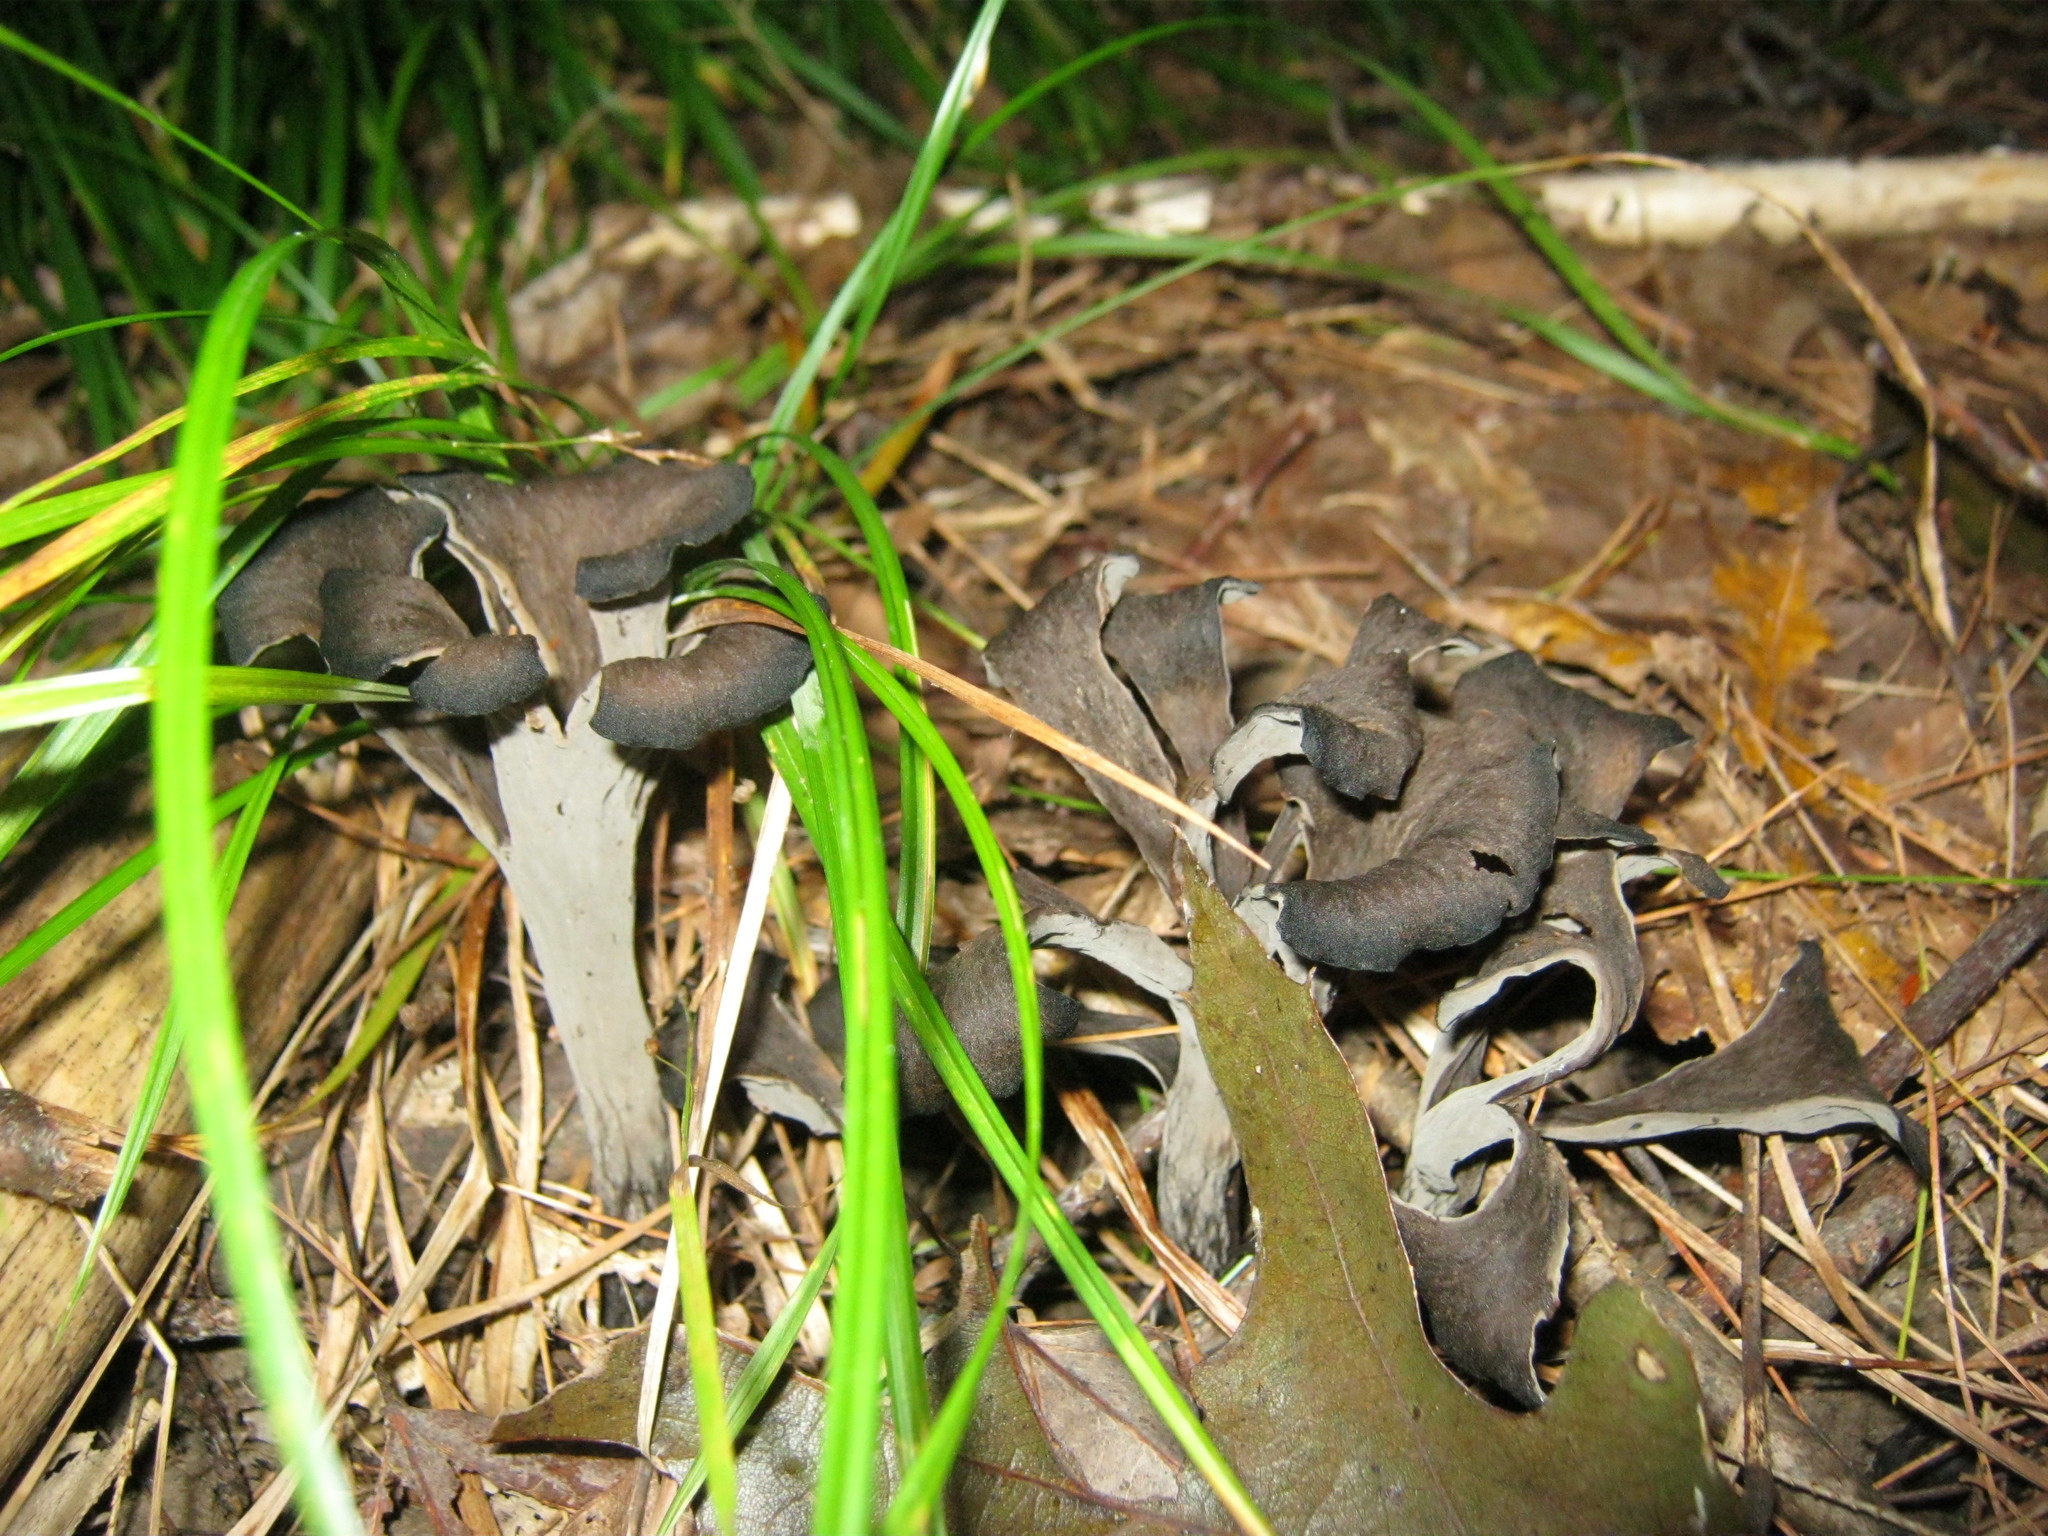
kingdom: Fungi
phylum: Basidiomycota
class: Agaricomycetes
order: Cantharellales
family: Hydnaceae
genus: Craterellus
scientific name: Craterellus cornucopioides
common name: Horn of plenty
